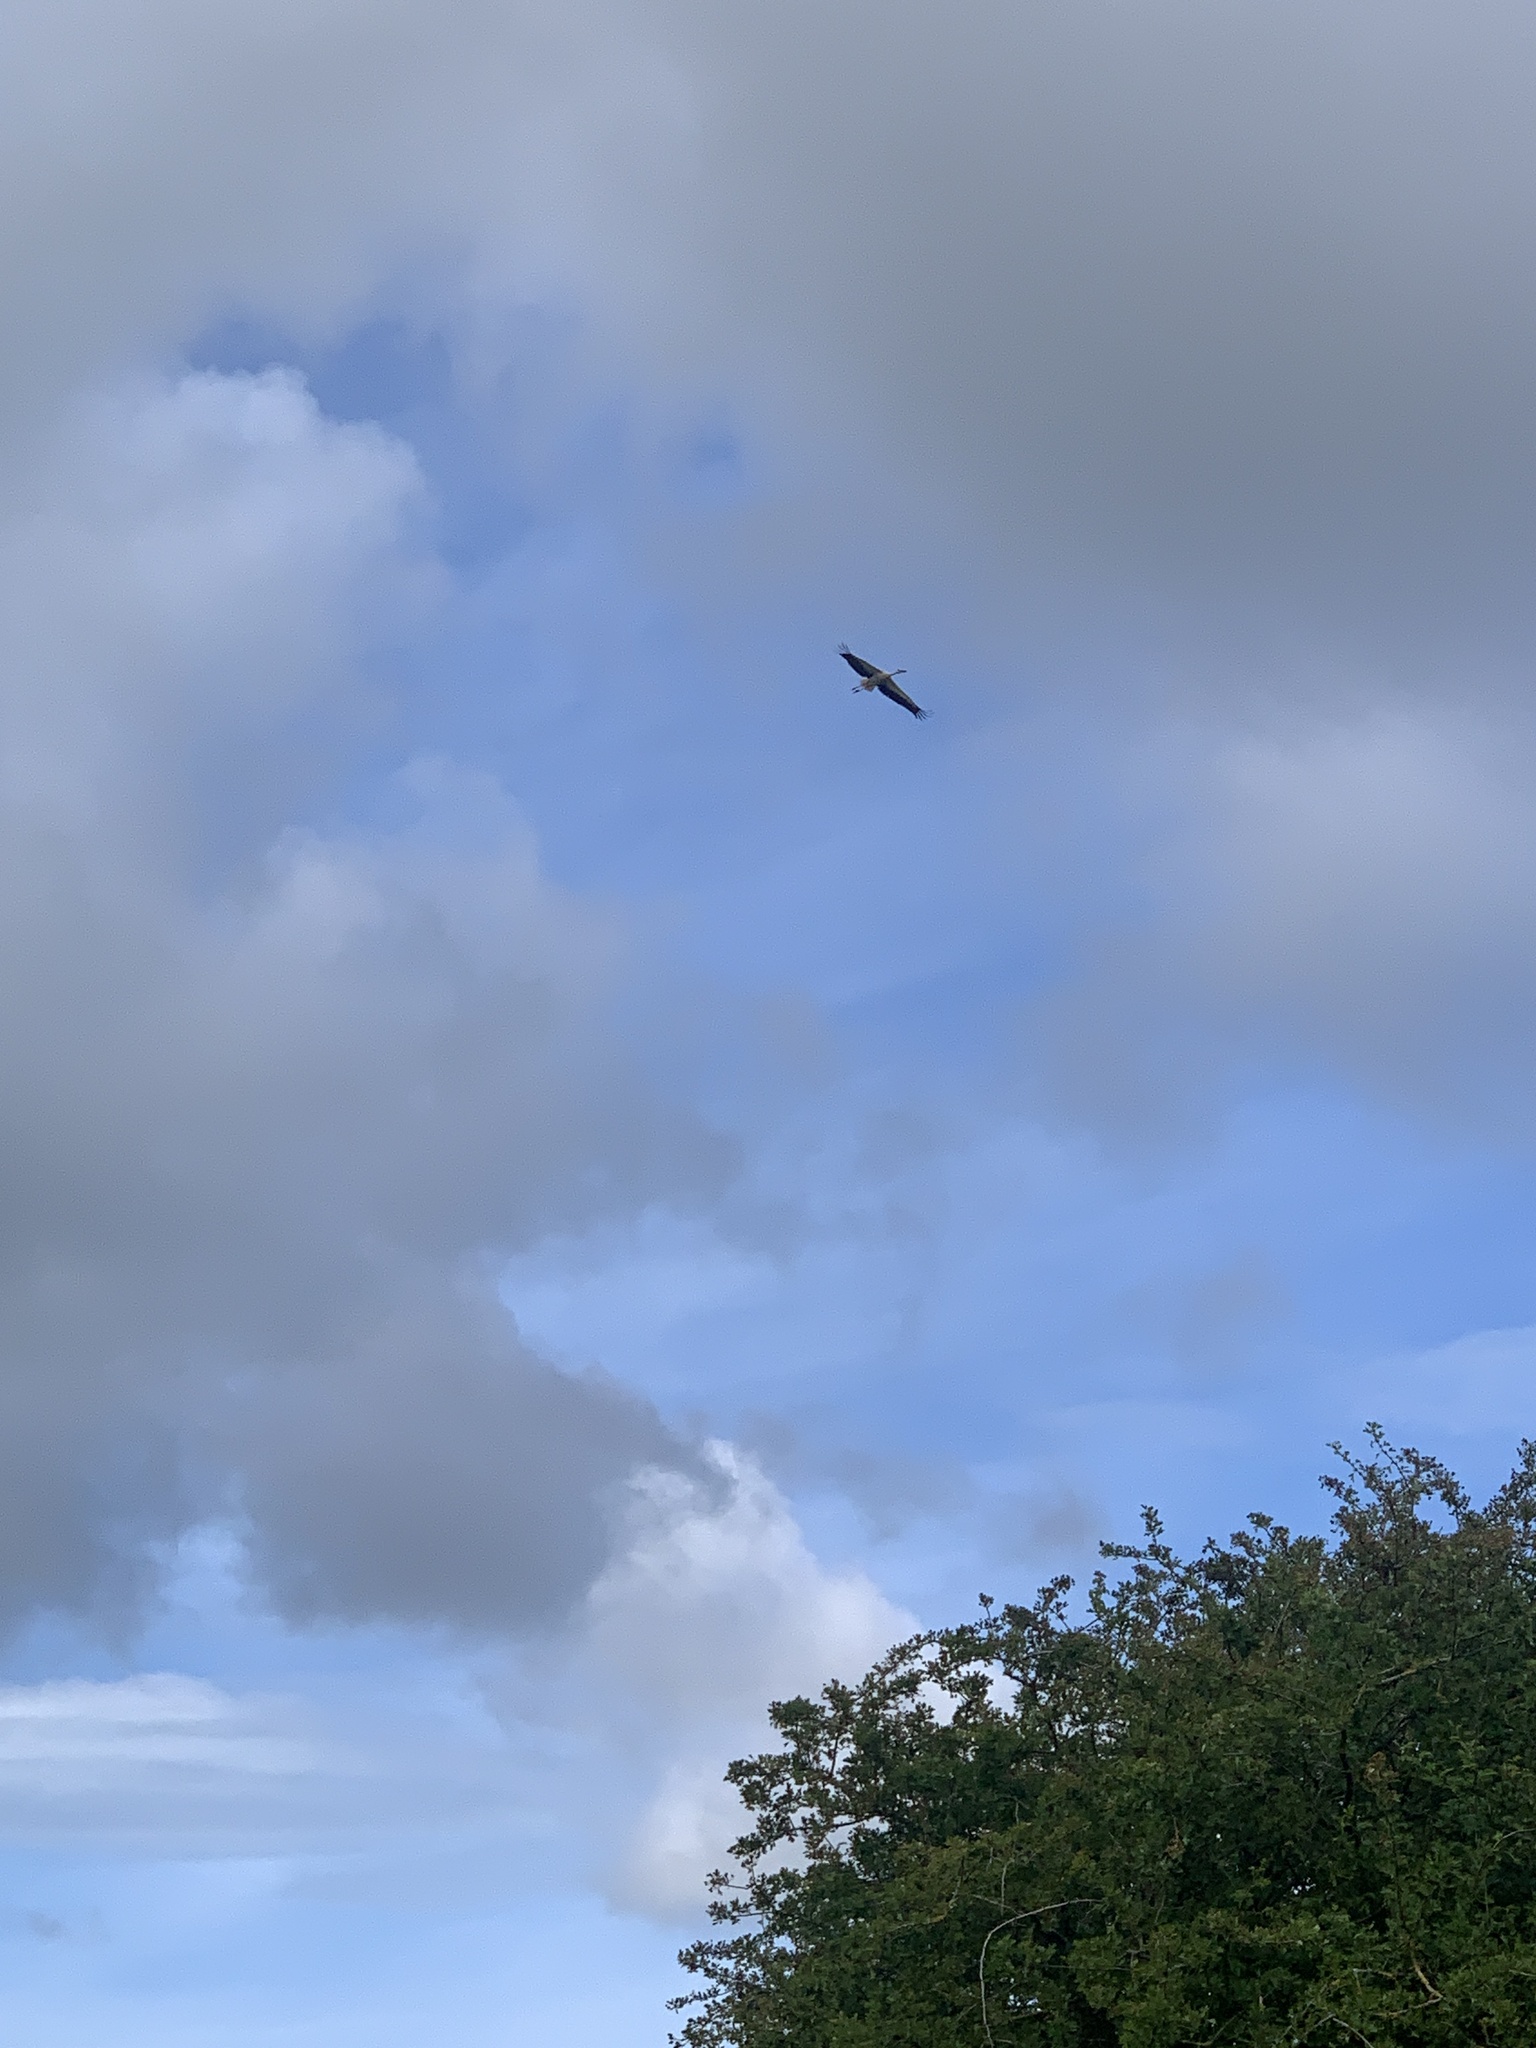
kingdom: Animalia
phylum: Chordata
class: Aves
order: Ciconiiformes
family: Ciconiidae
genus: Ciconia
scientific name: Ciconia ciconia
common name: White stork
